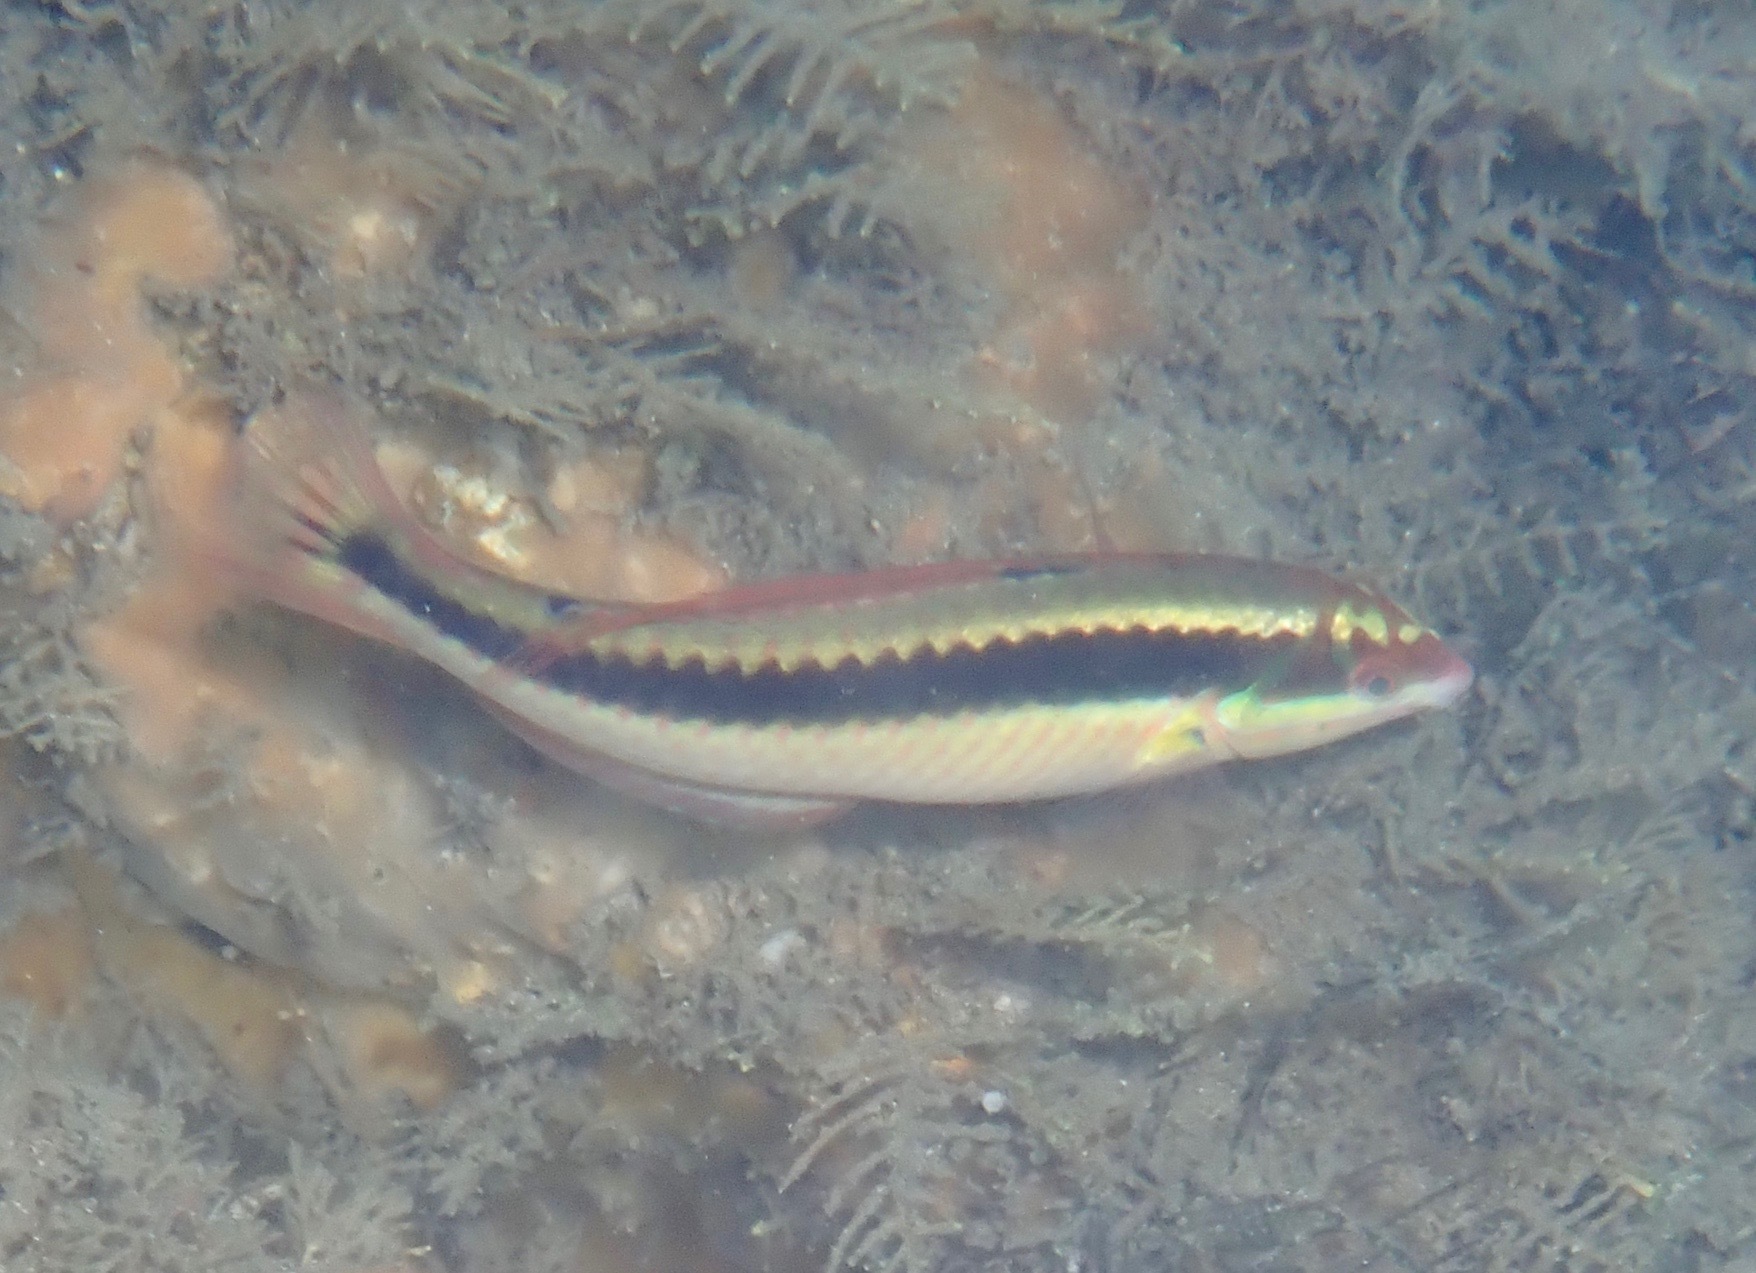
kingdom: Animalia
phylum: Chordata
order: Perciformes
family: Labridae
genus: Halichoeres
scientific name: Halichoeres maculipinna
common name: Clown wrasse
